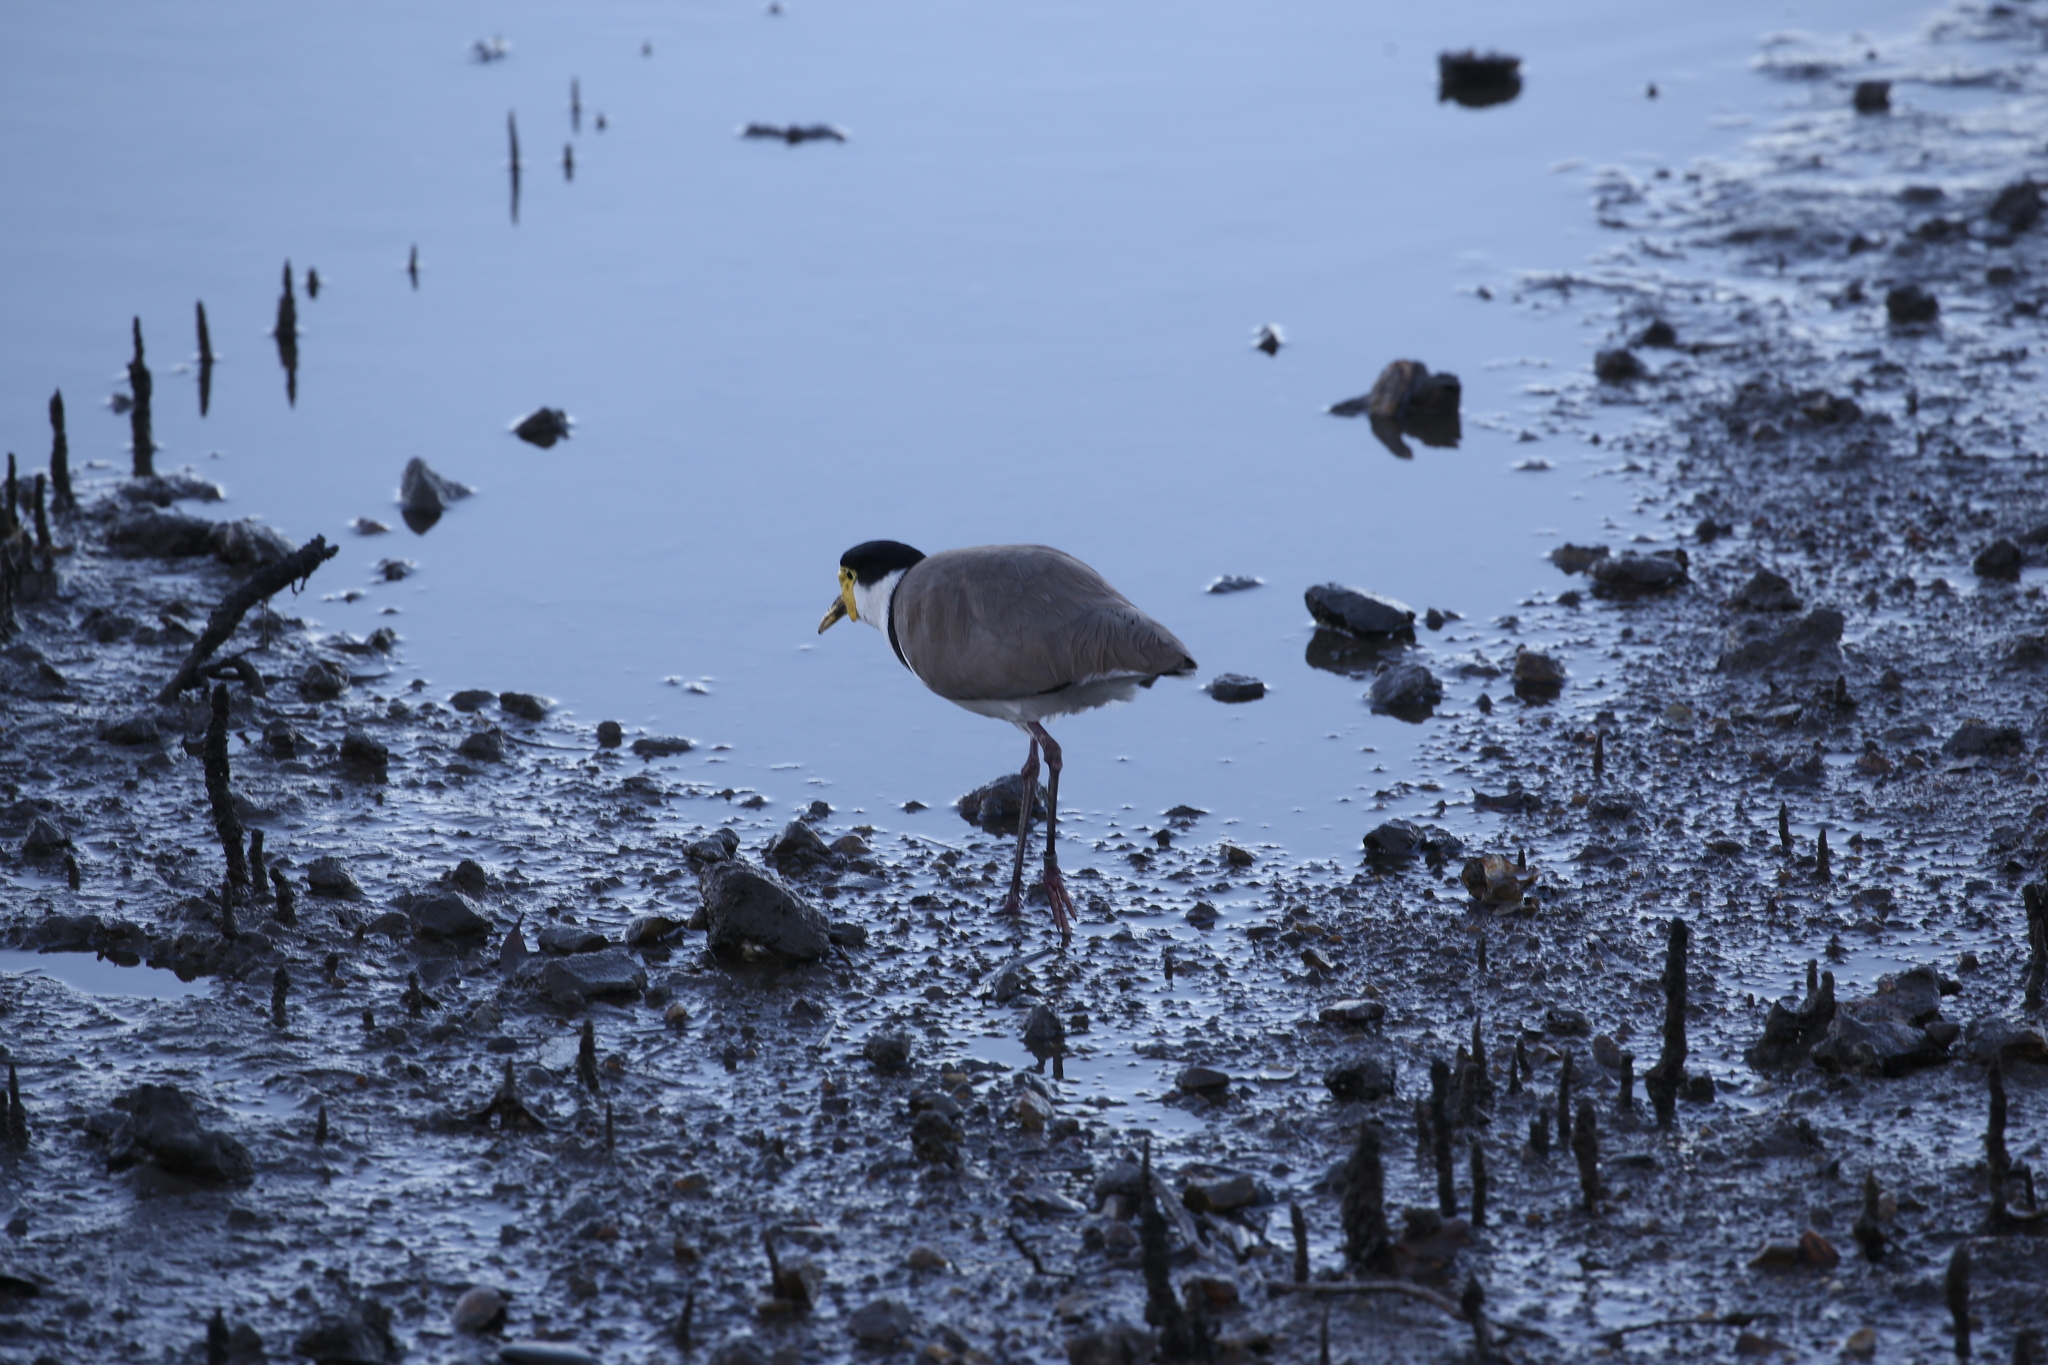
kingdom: Animalia
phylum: Chordata
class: Aves
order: Charadriiformes
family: Charadriidae
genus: Vanellus
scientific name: Vanellus miles
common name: Masked lapwing
